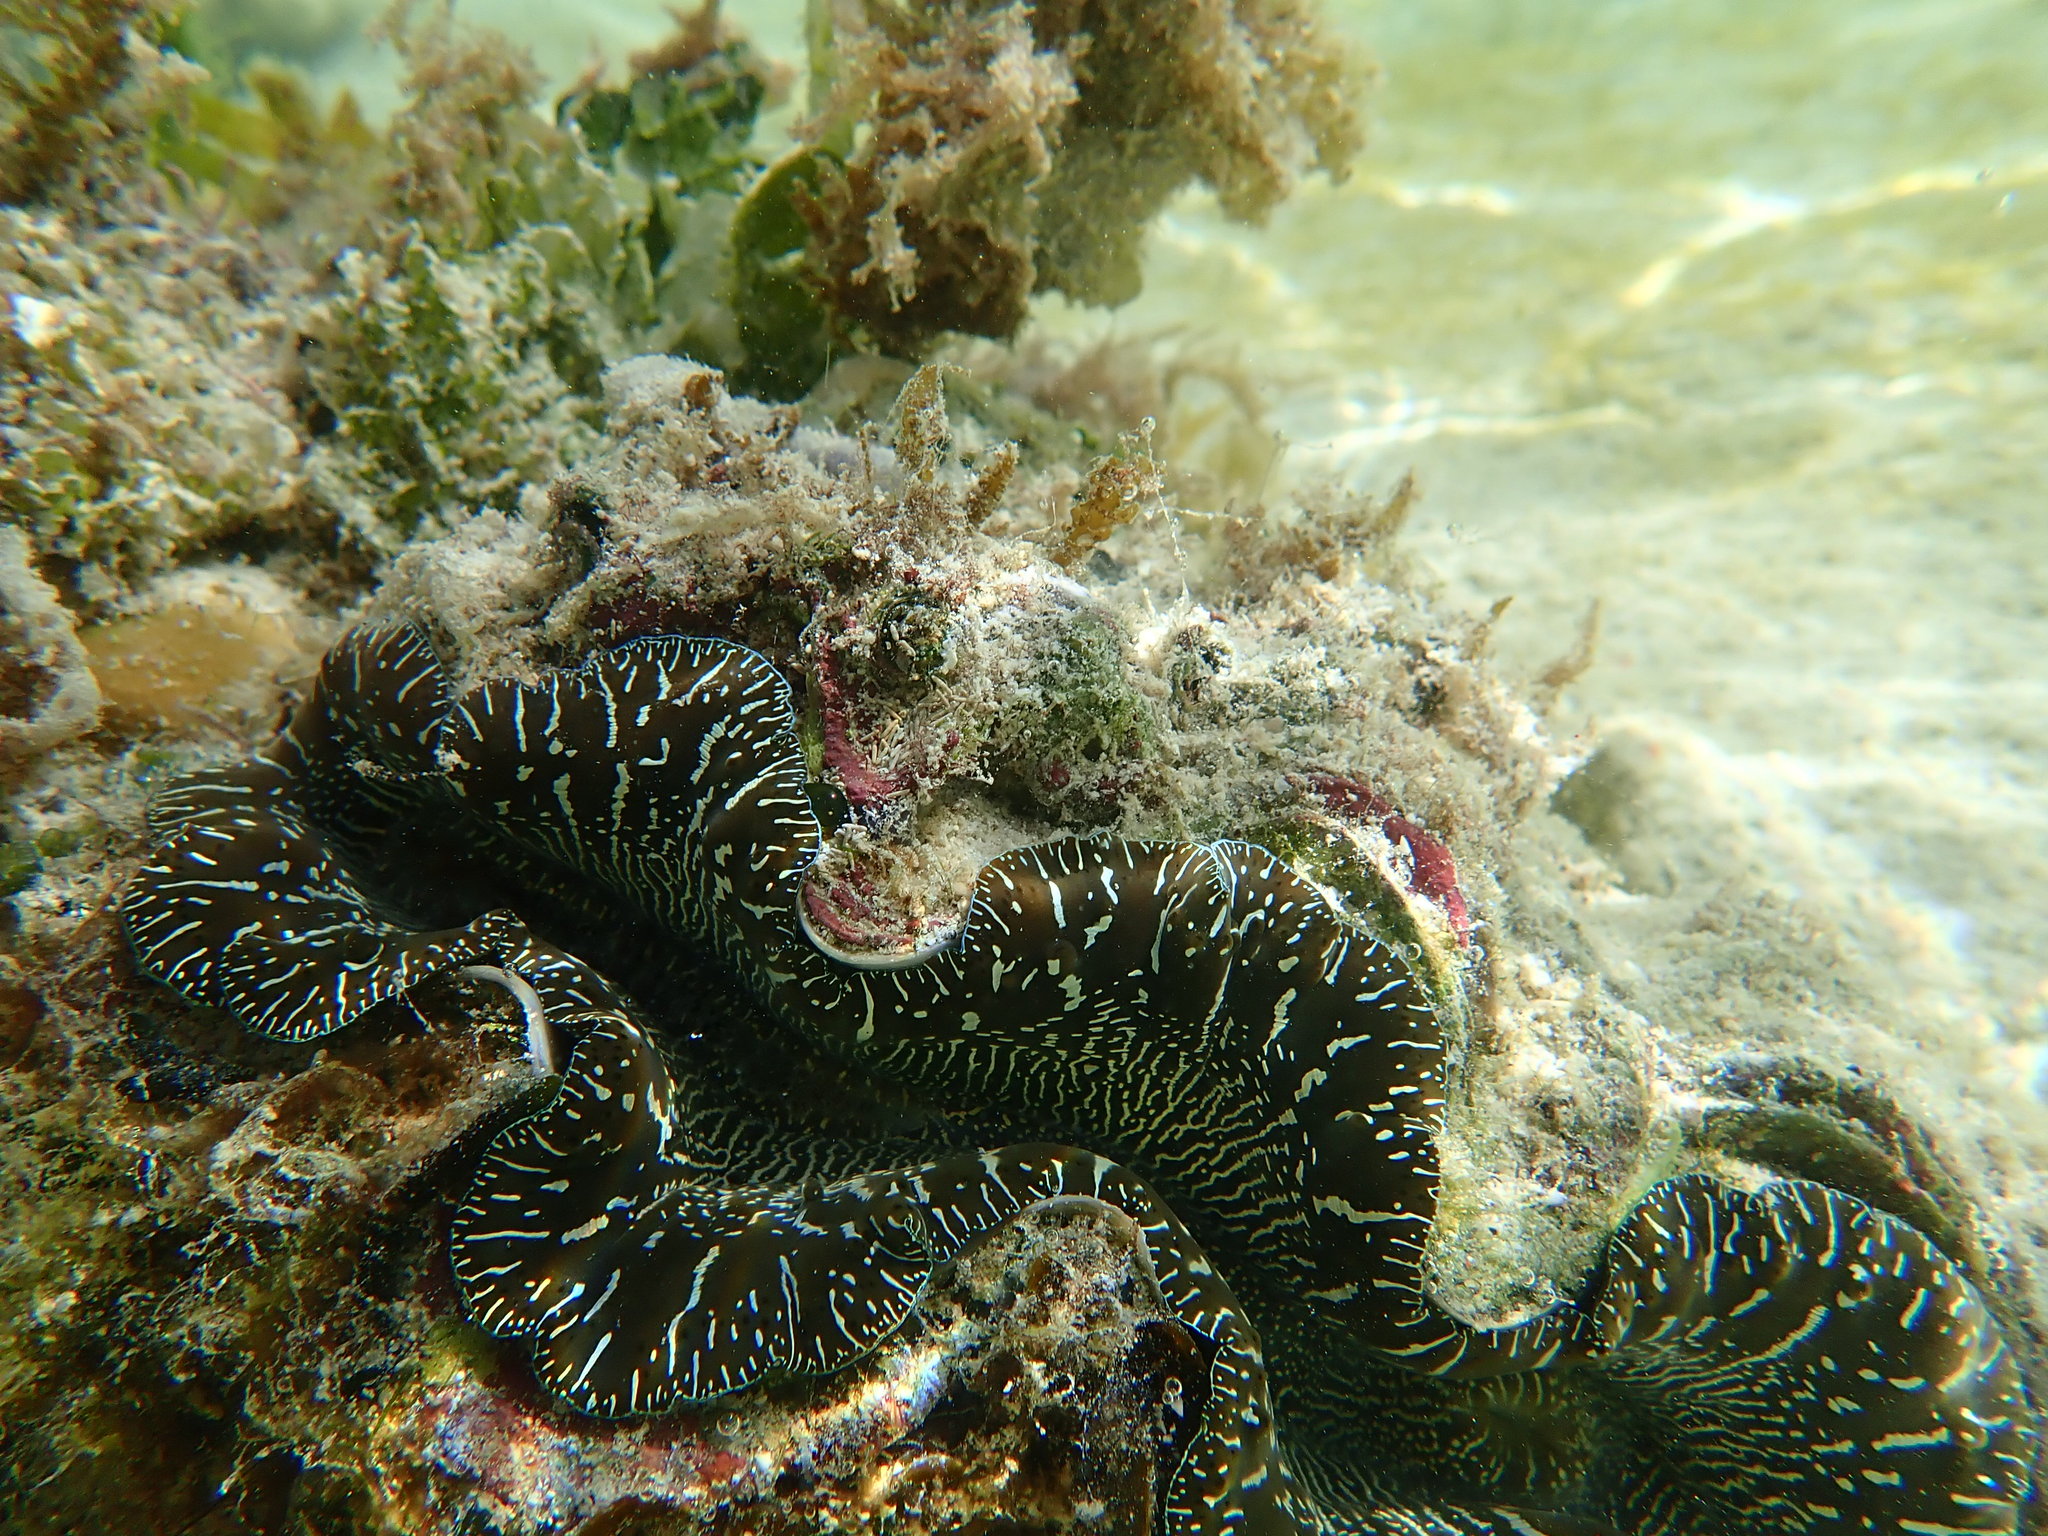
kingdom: Animalia
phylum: Mollusca
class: Bivalvia
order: Cardiida
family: Cardiidae
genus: Tridacna
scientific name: Tridacna maxima
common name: Small giant clam
